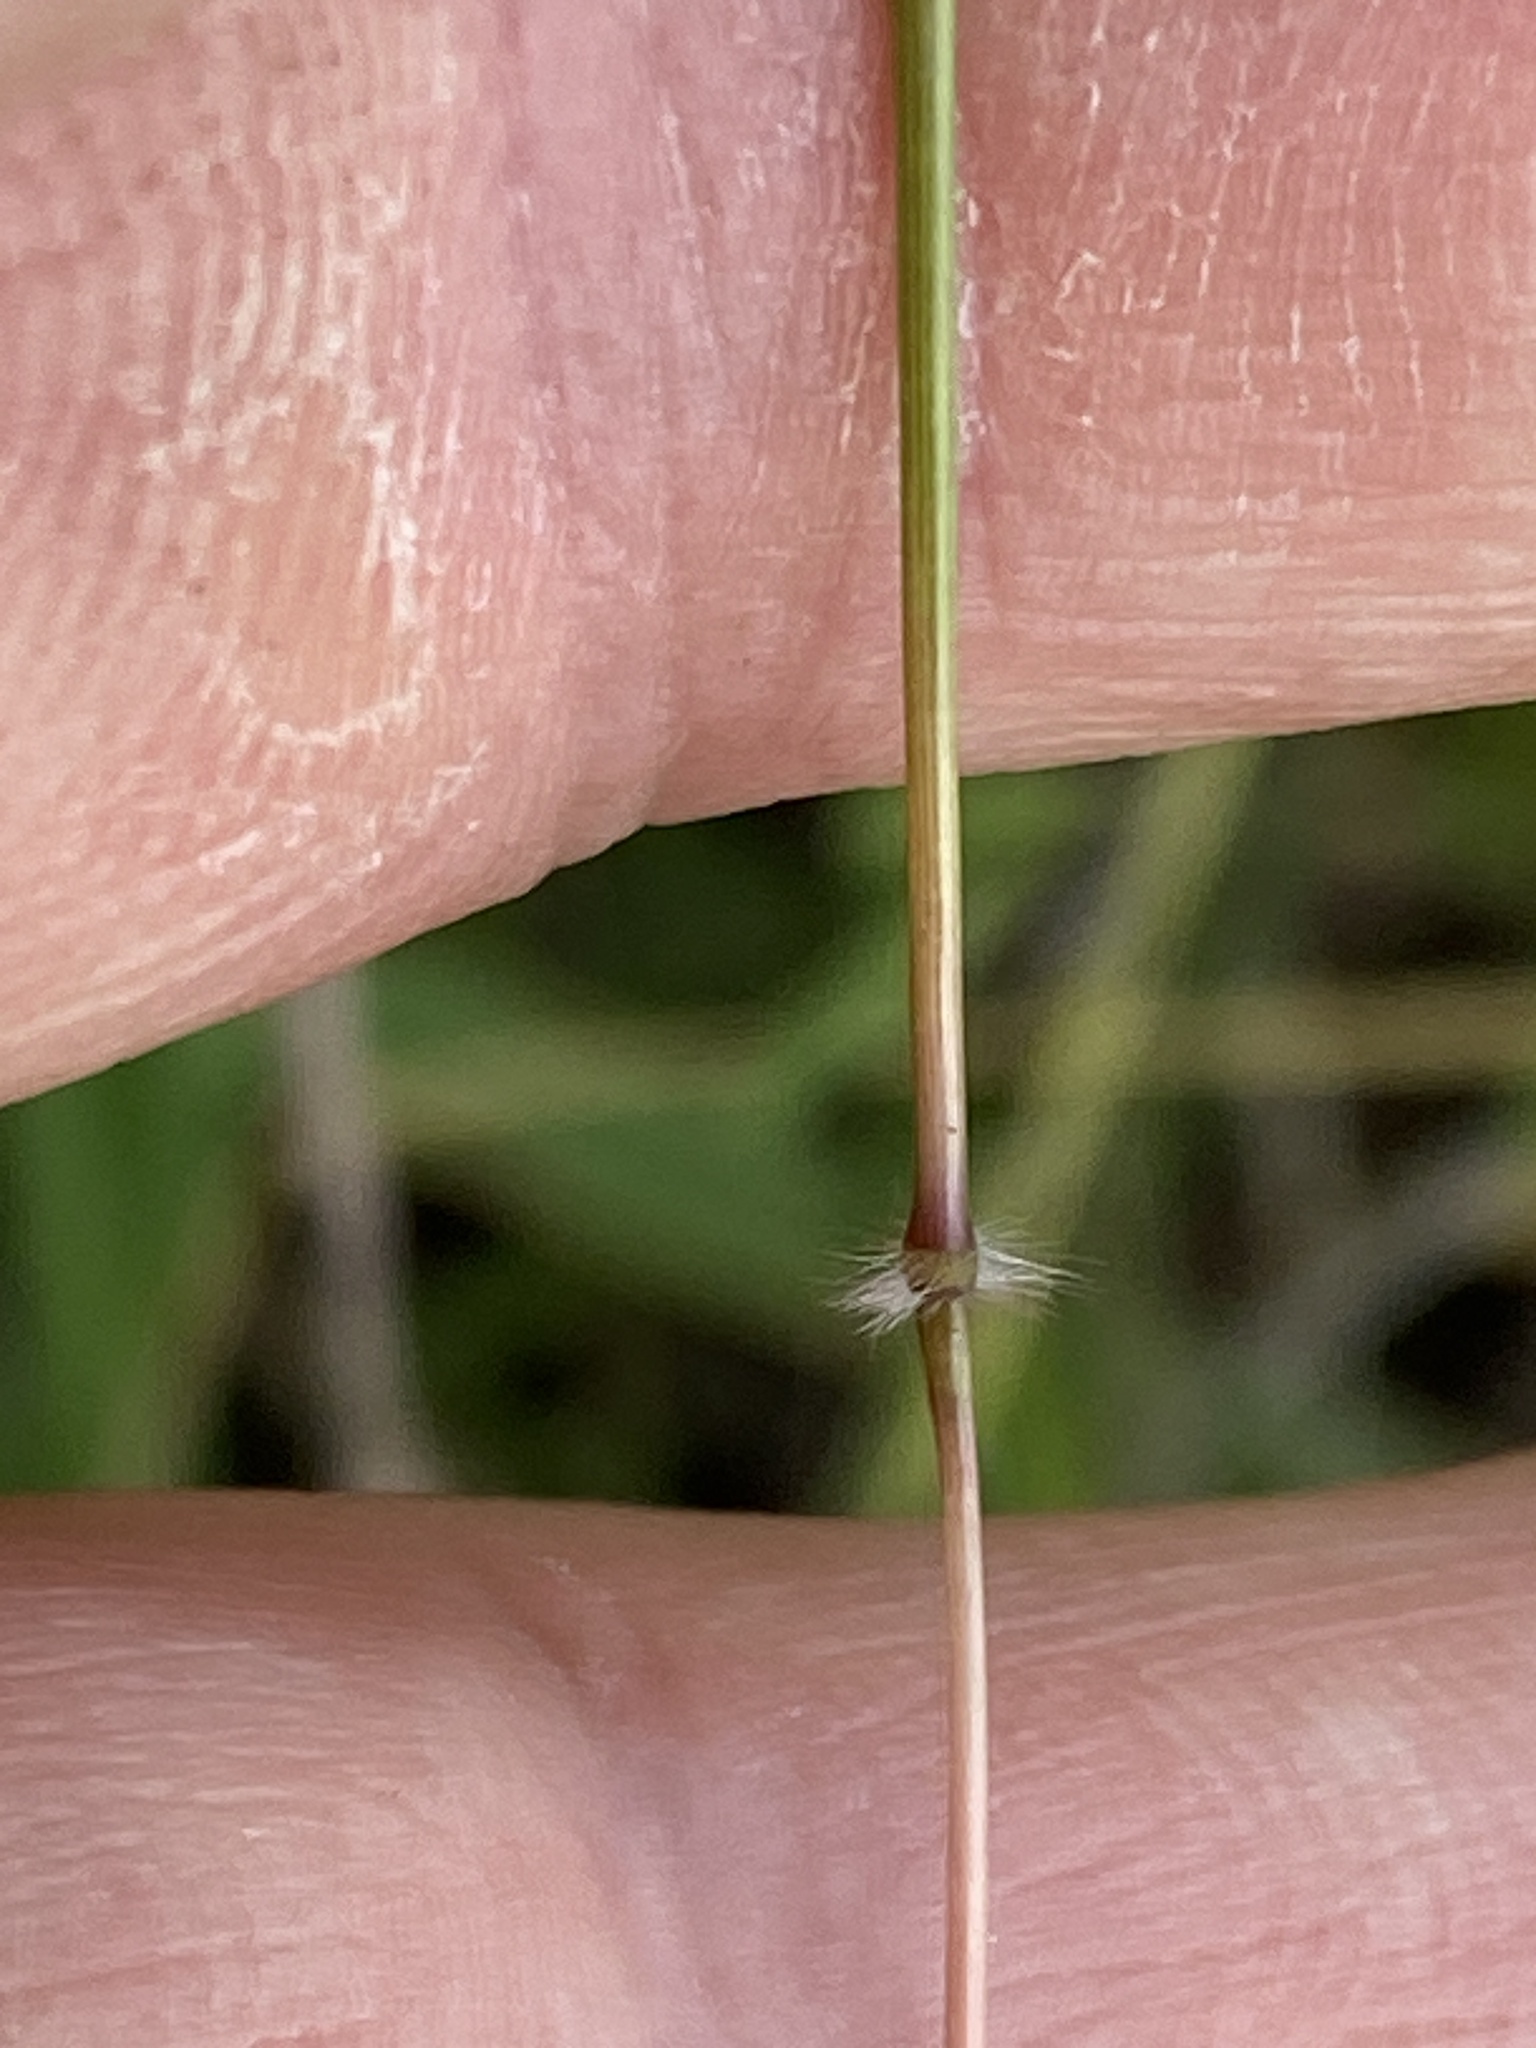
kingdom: Plantae
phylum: Tracheophyta
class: Liliopsida
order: Poales
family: Poaceae
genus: Dichanthium
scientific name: Dichanthium sericeum
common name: Silky bluestem
